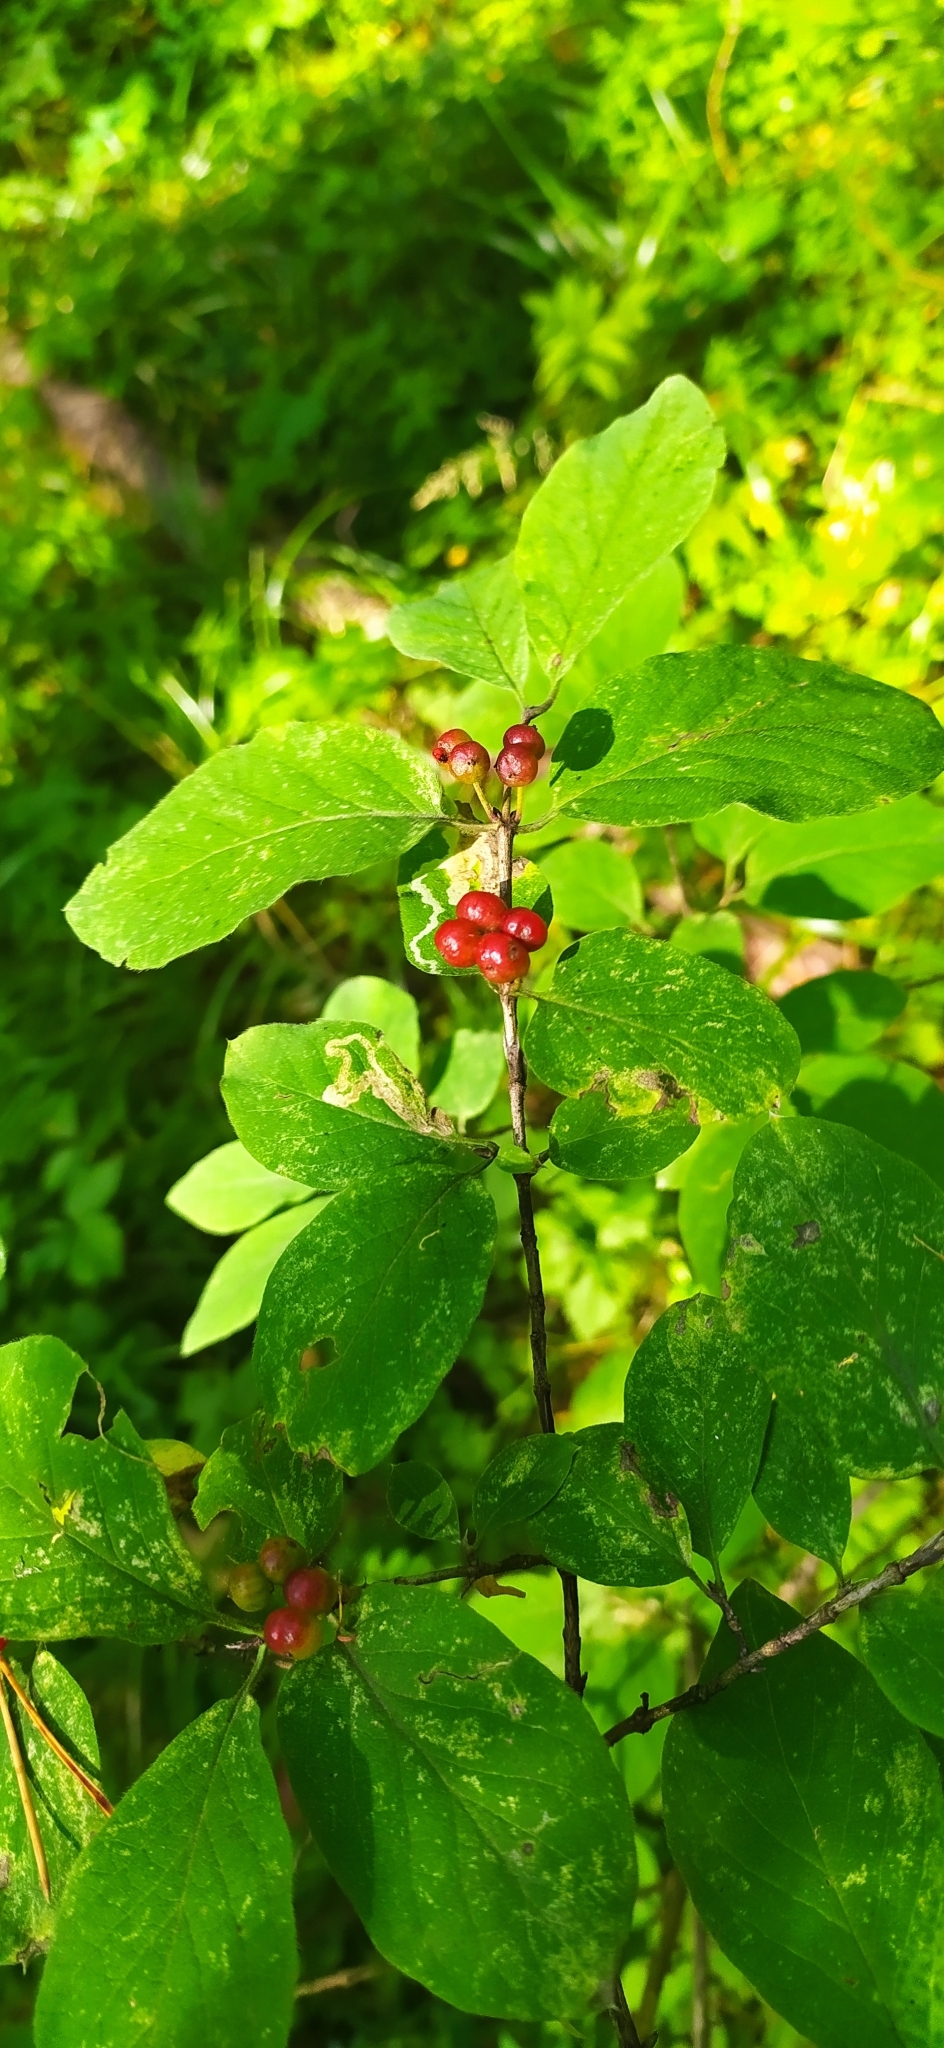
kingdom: Plantae
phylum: Tracheophyta
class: Magnoliopsida
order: Dipsacales
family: Caprifoliaceae
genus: Lonicera
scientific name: Lonicera xylosteum
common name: Fly honeysuckle
